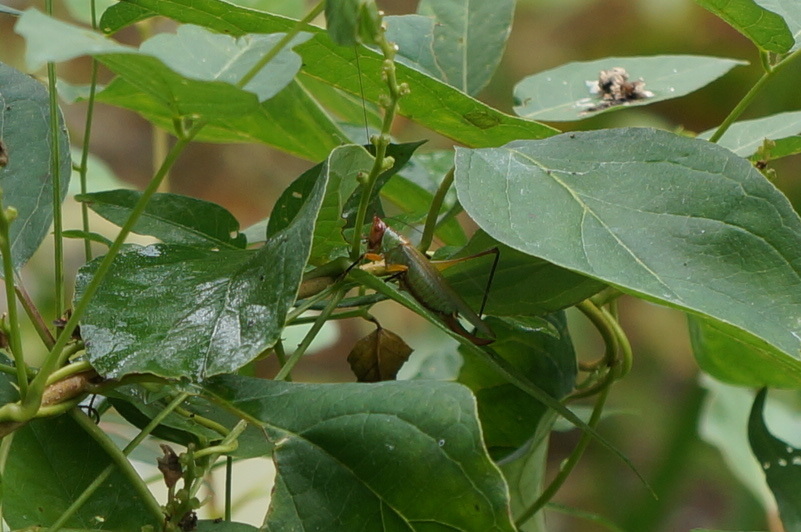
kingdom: Animalia
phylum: Arthropoda
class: Insecta
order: Orthoptera
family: Tettigoniidae
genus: Orchelimum
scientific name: Orchelimum nigripes
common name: Black-legged meadow katydid
